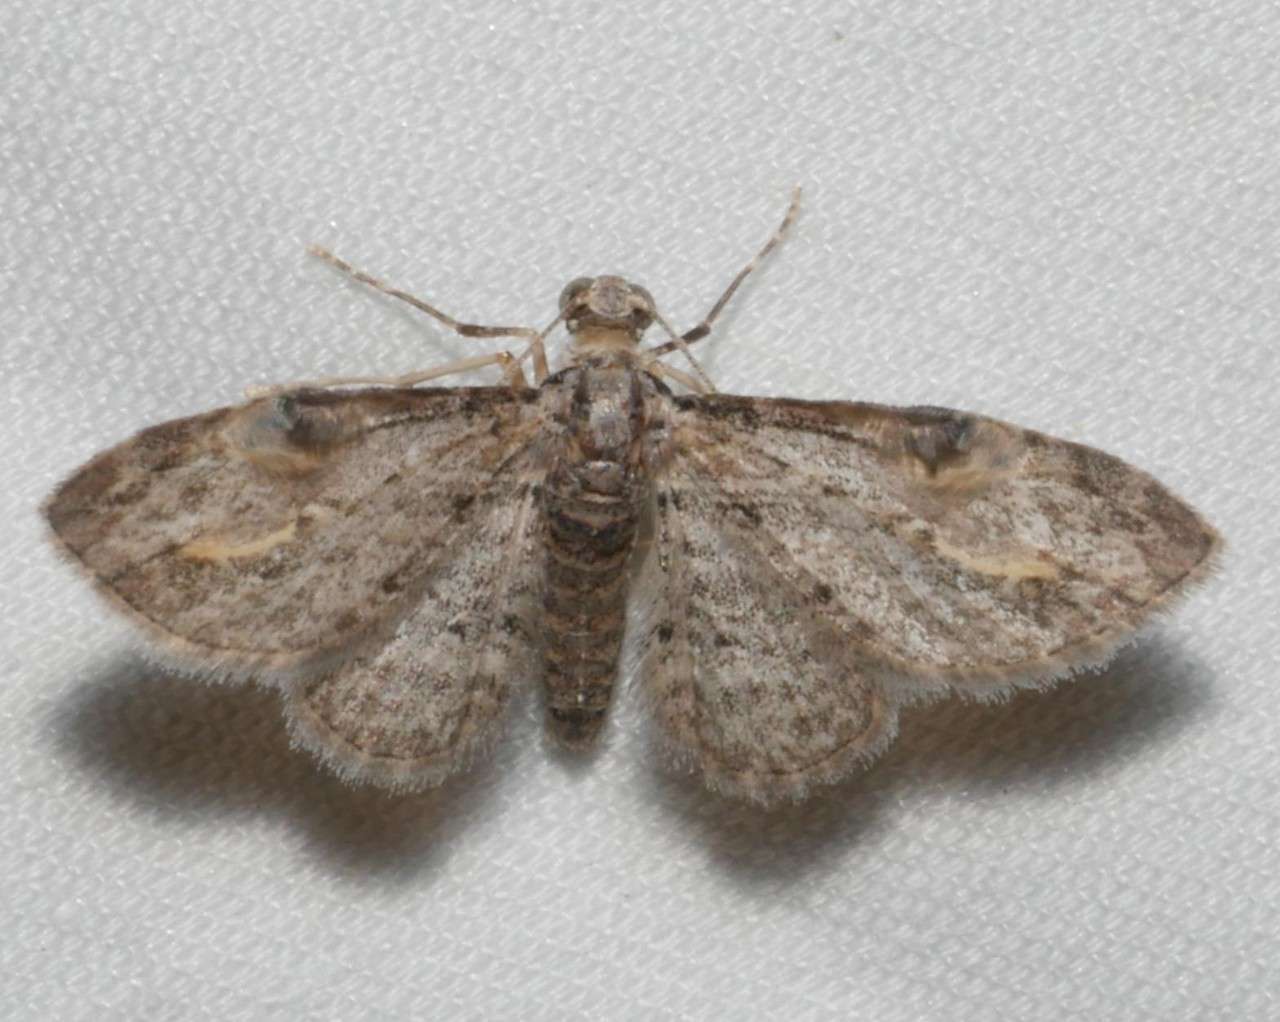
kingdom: Animalia
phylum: Arthropoda
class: Insecta
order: Lepidoptera
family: Geometridae
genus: Chloroclystis
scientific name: Chloroclystis insigillata
